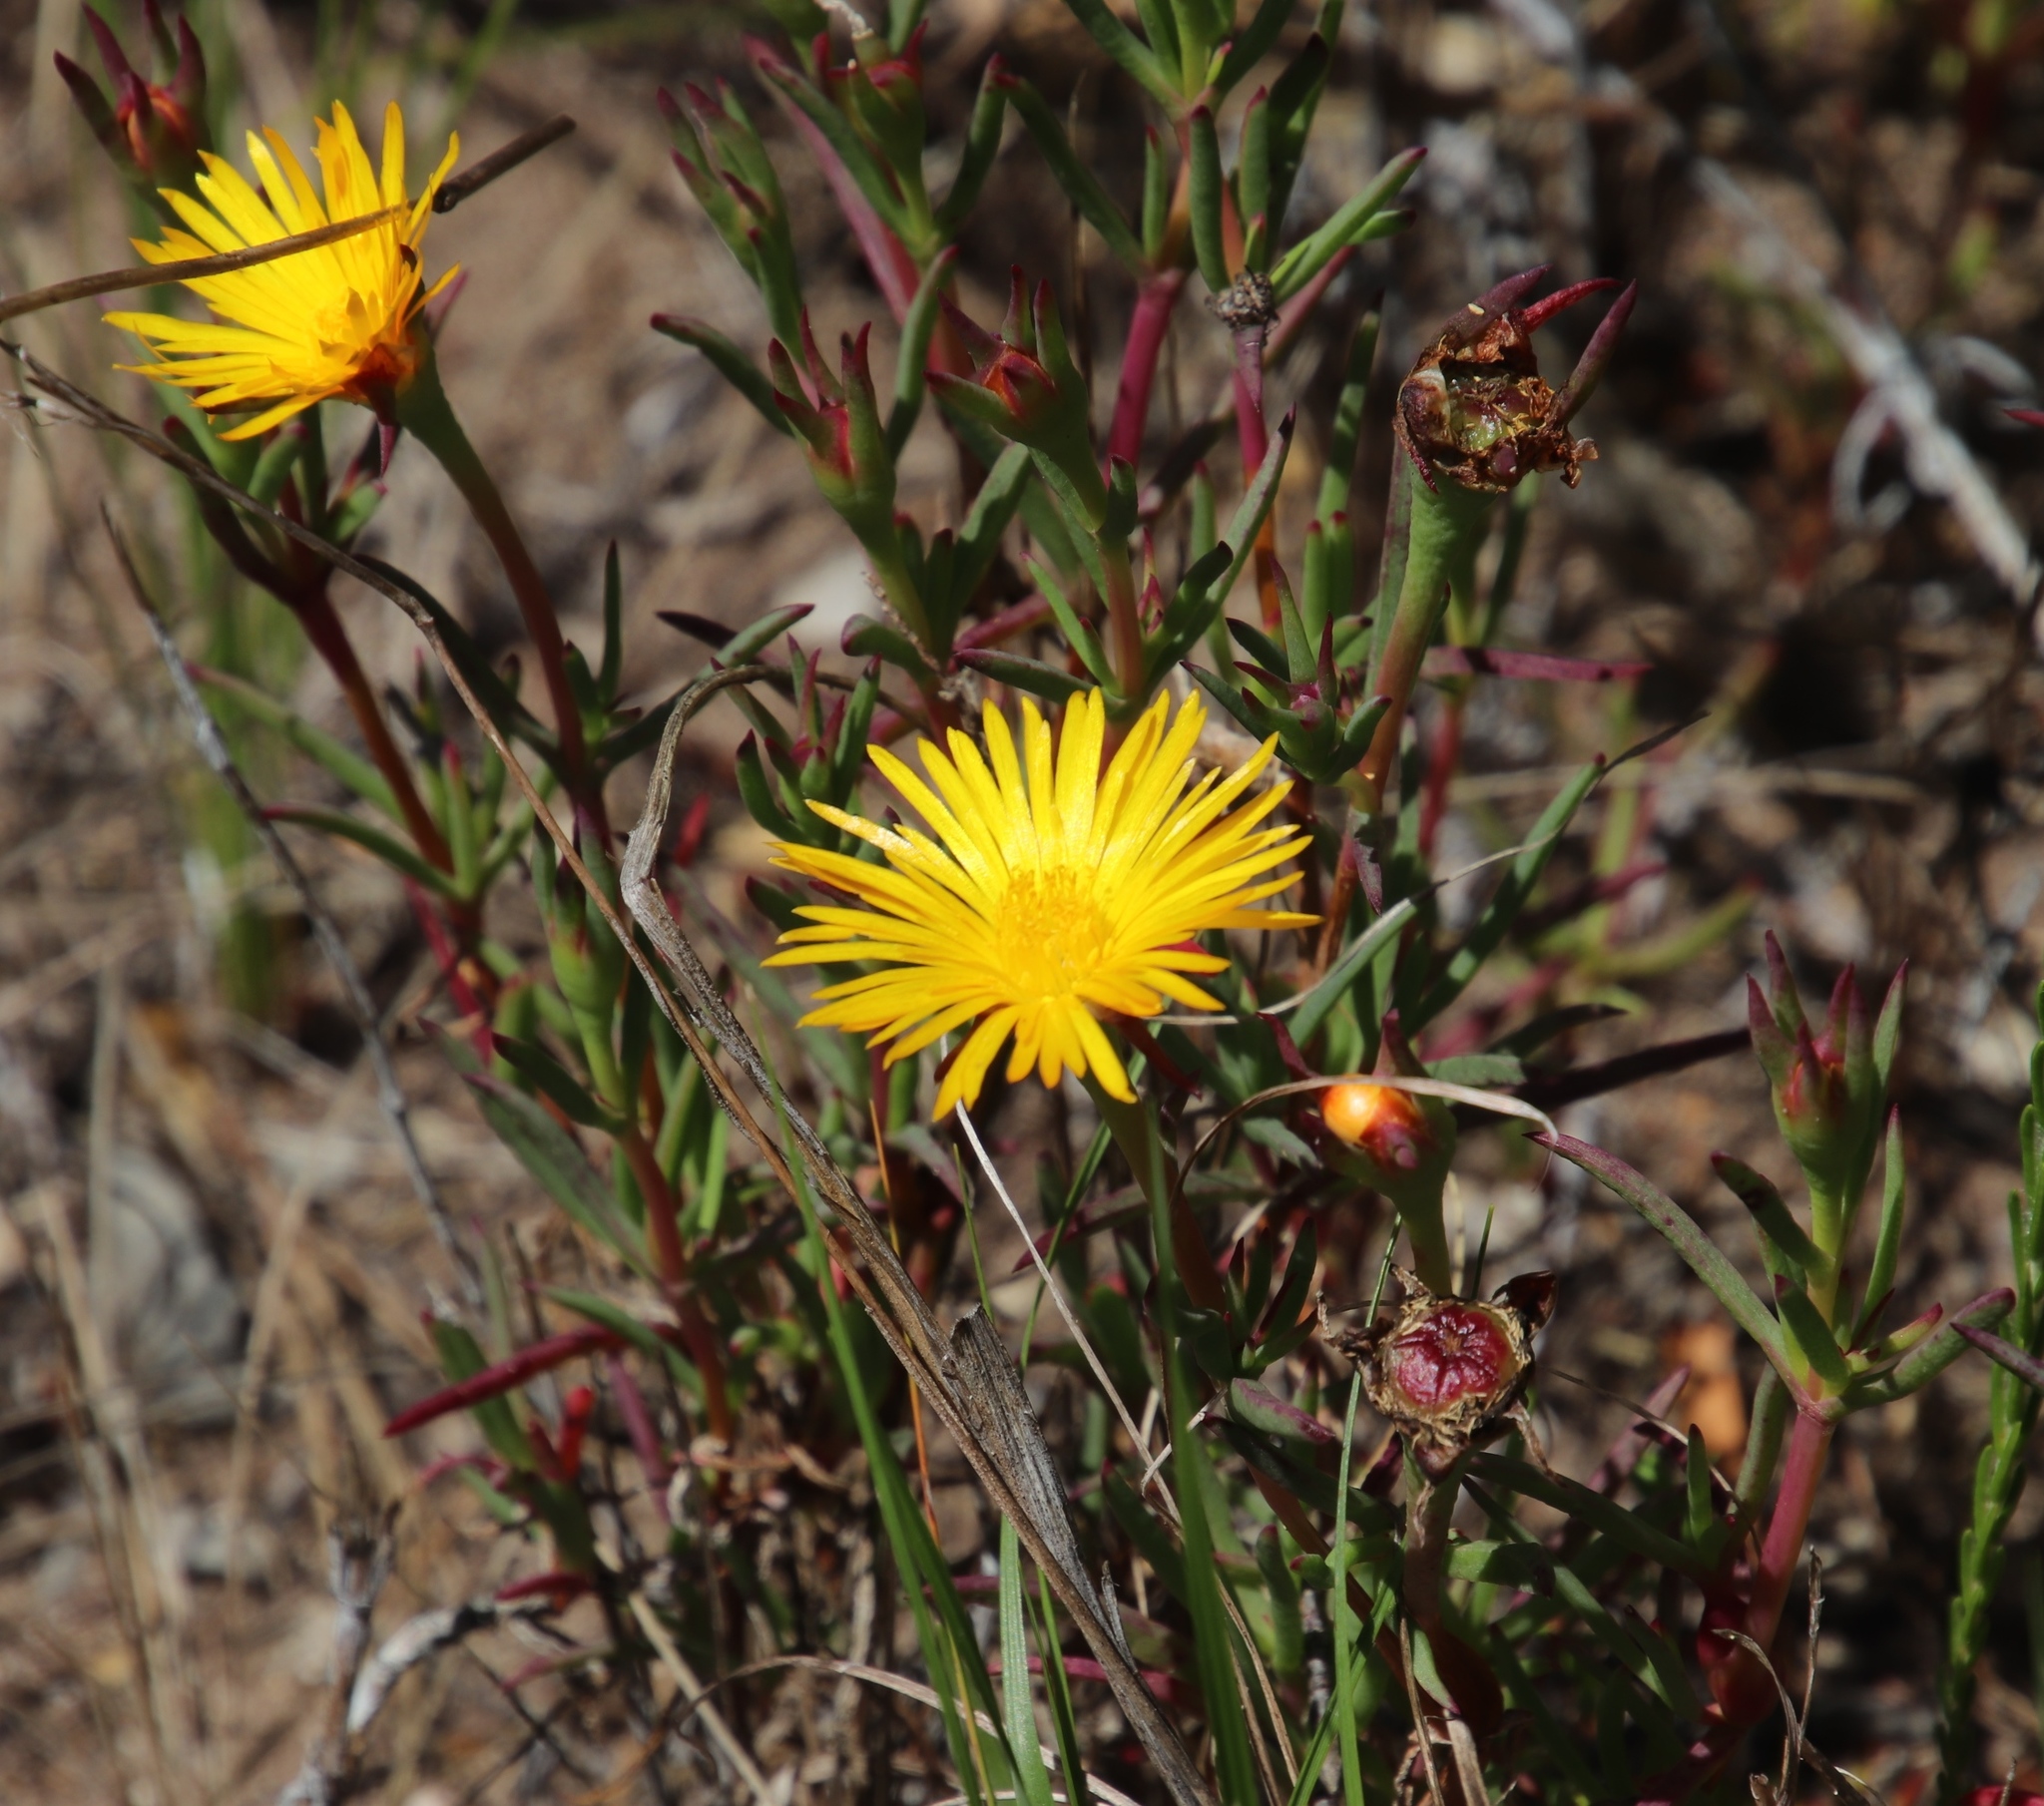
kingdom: Plantae
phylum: Tracheophyta
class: Magnoliopsida
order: Caryophyllales
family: Aizoaceae
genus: Lampranthus
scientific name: Lampranthus bicolor
